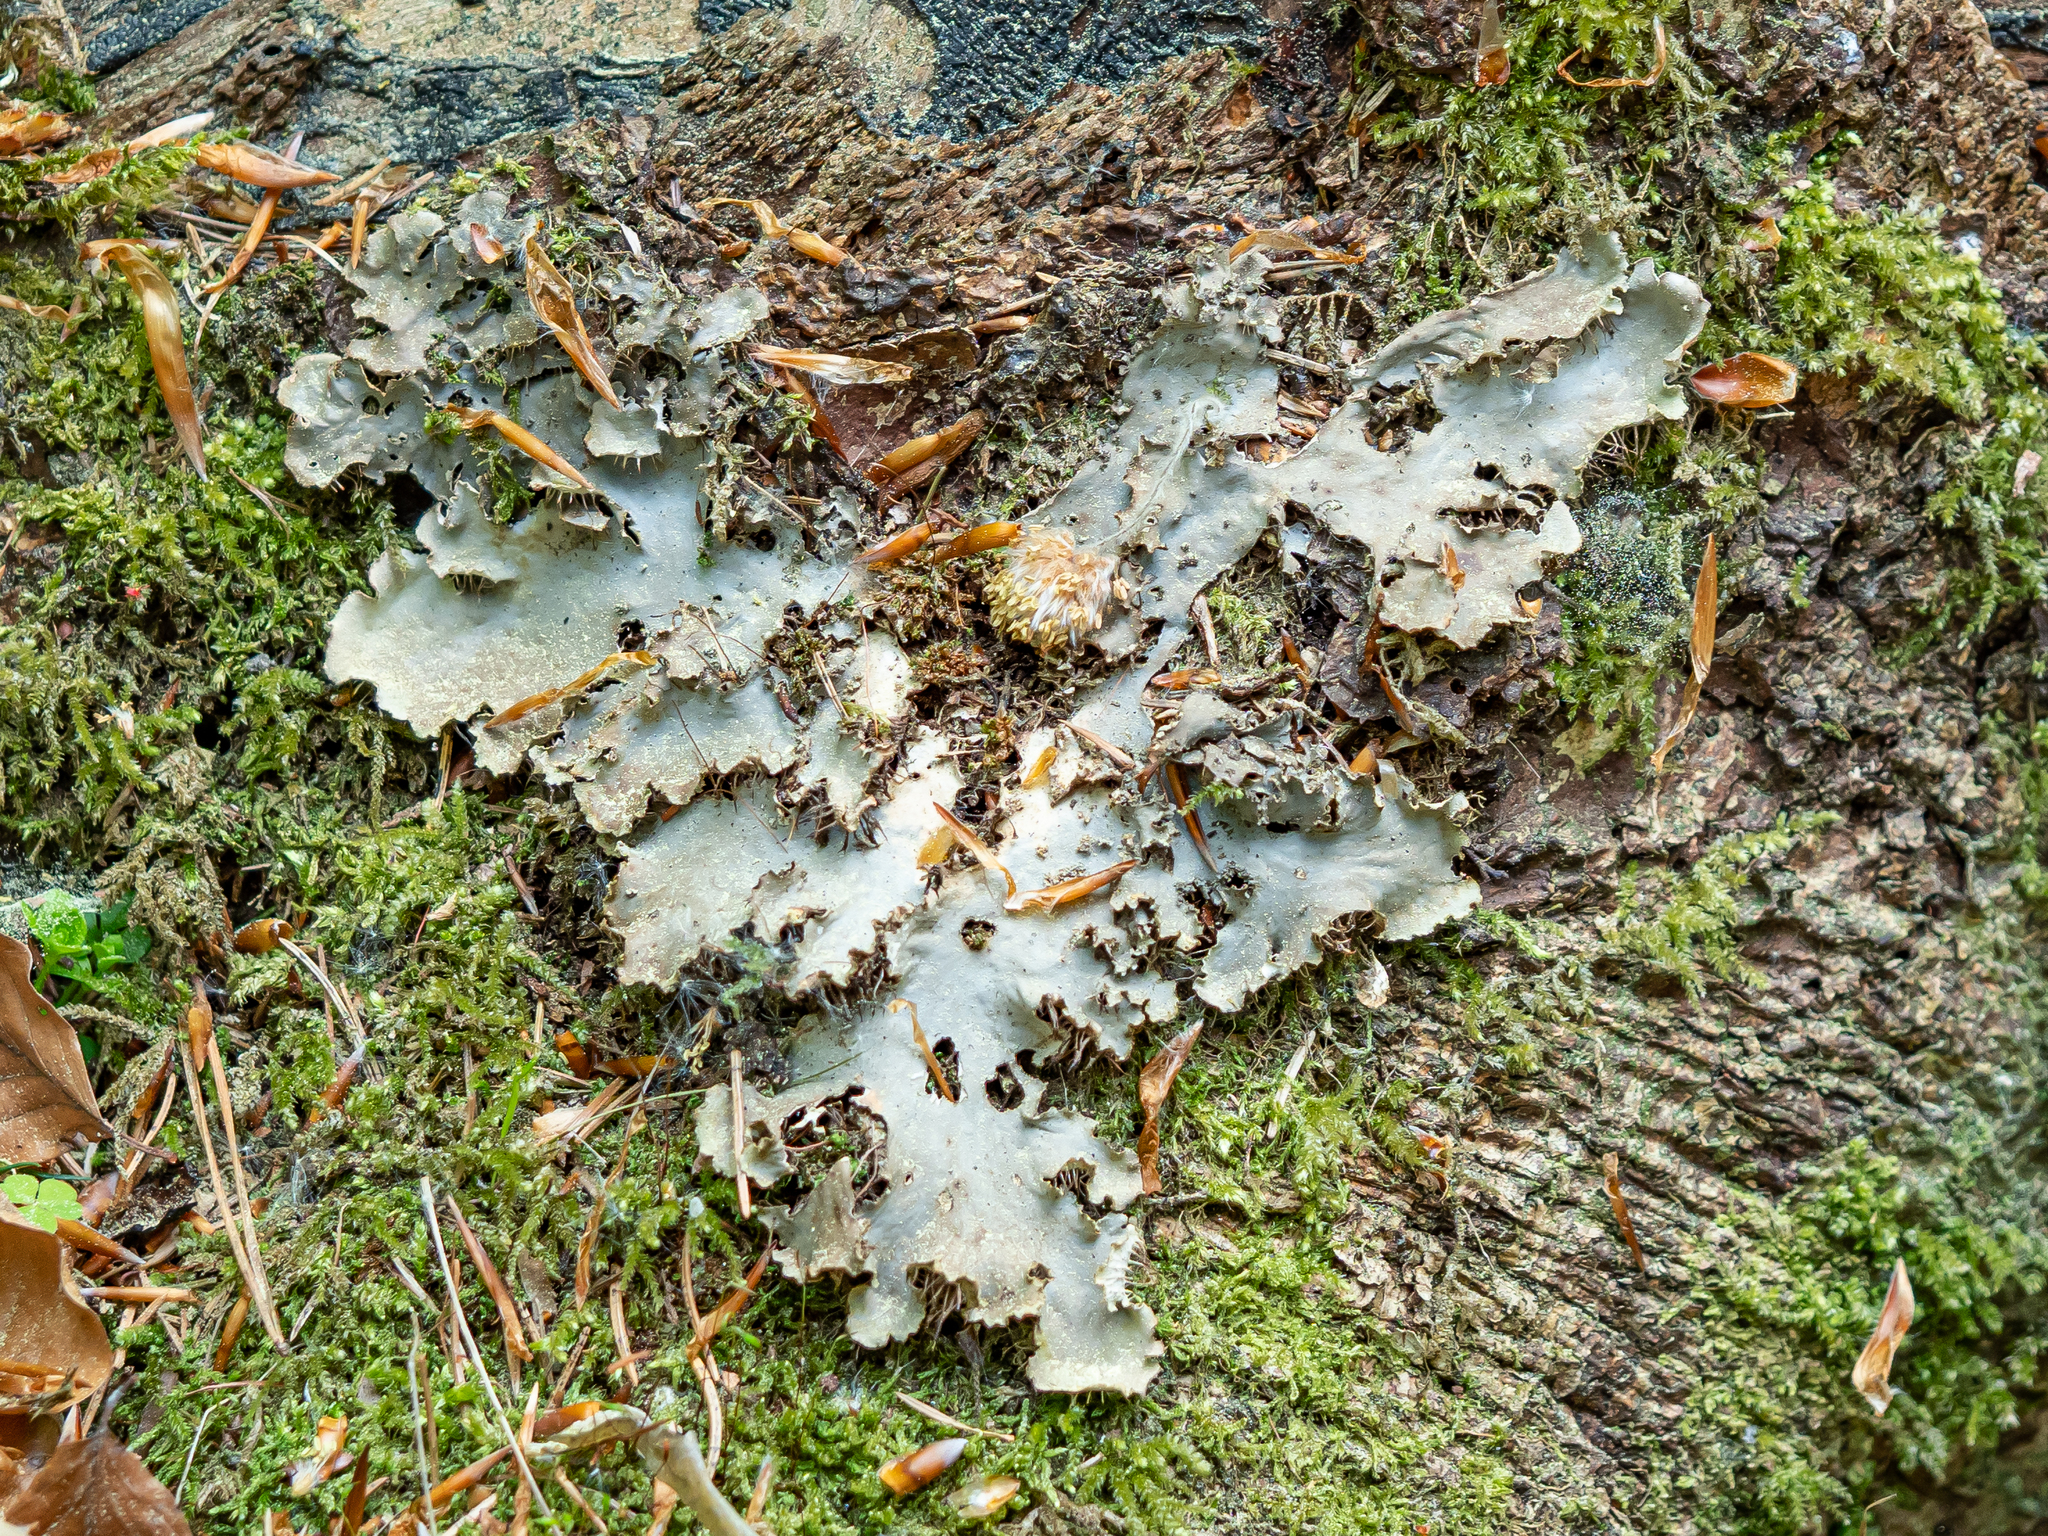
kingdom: Fungi
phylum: Ascomycota
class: Lecanoromycetes
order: Peltigerales
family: Peltigeraceae
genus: Peltigera
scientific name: Peltigera praetextata
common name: Scaly dog-lichen
